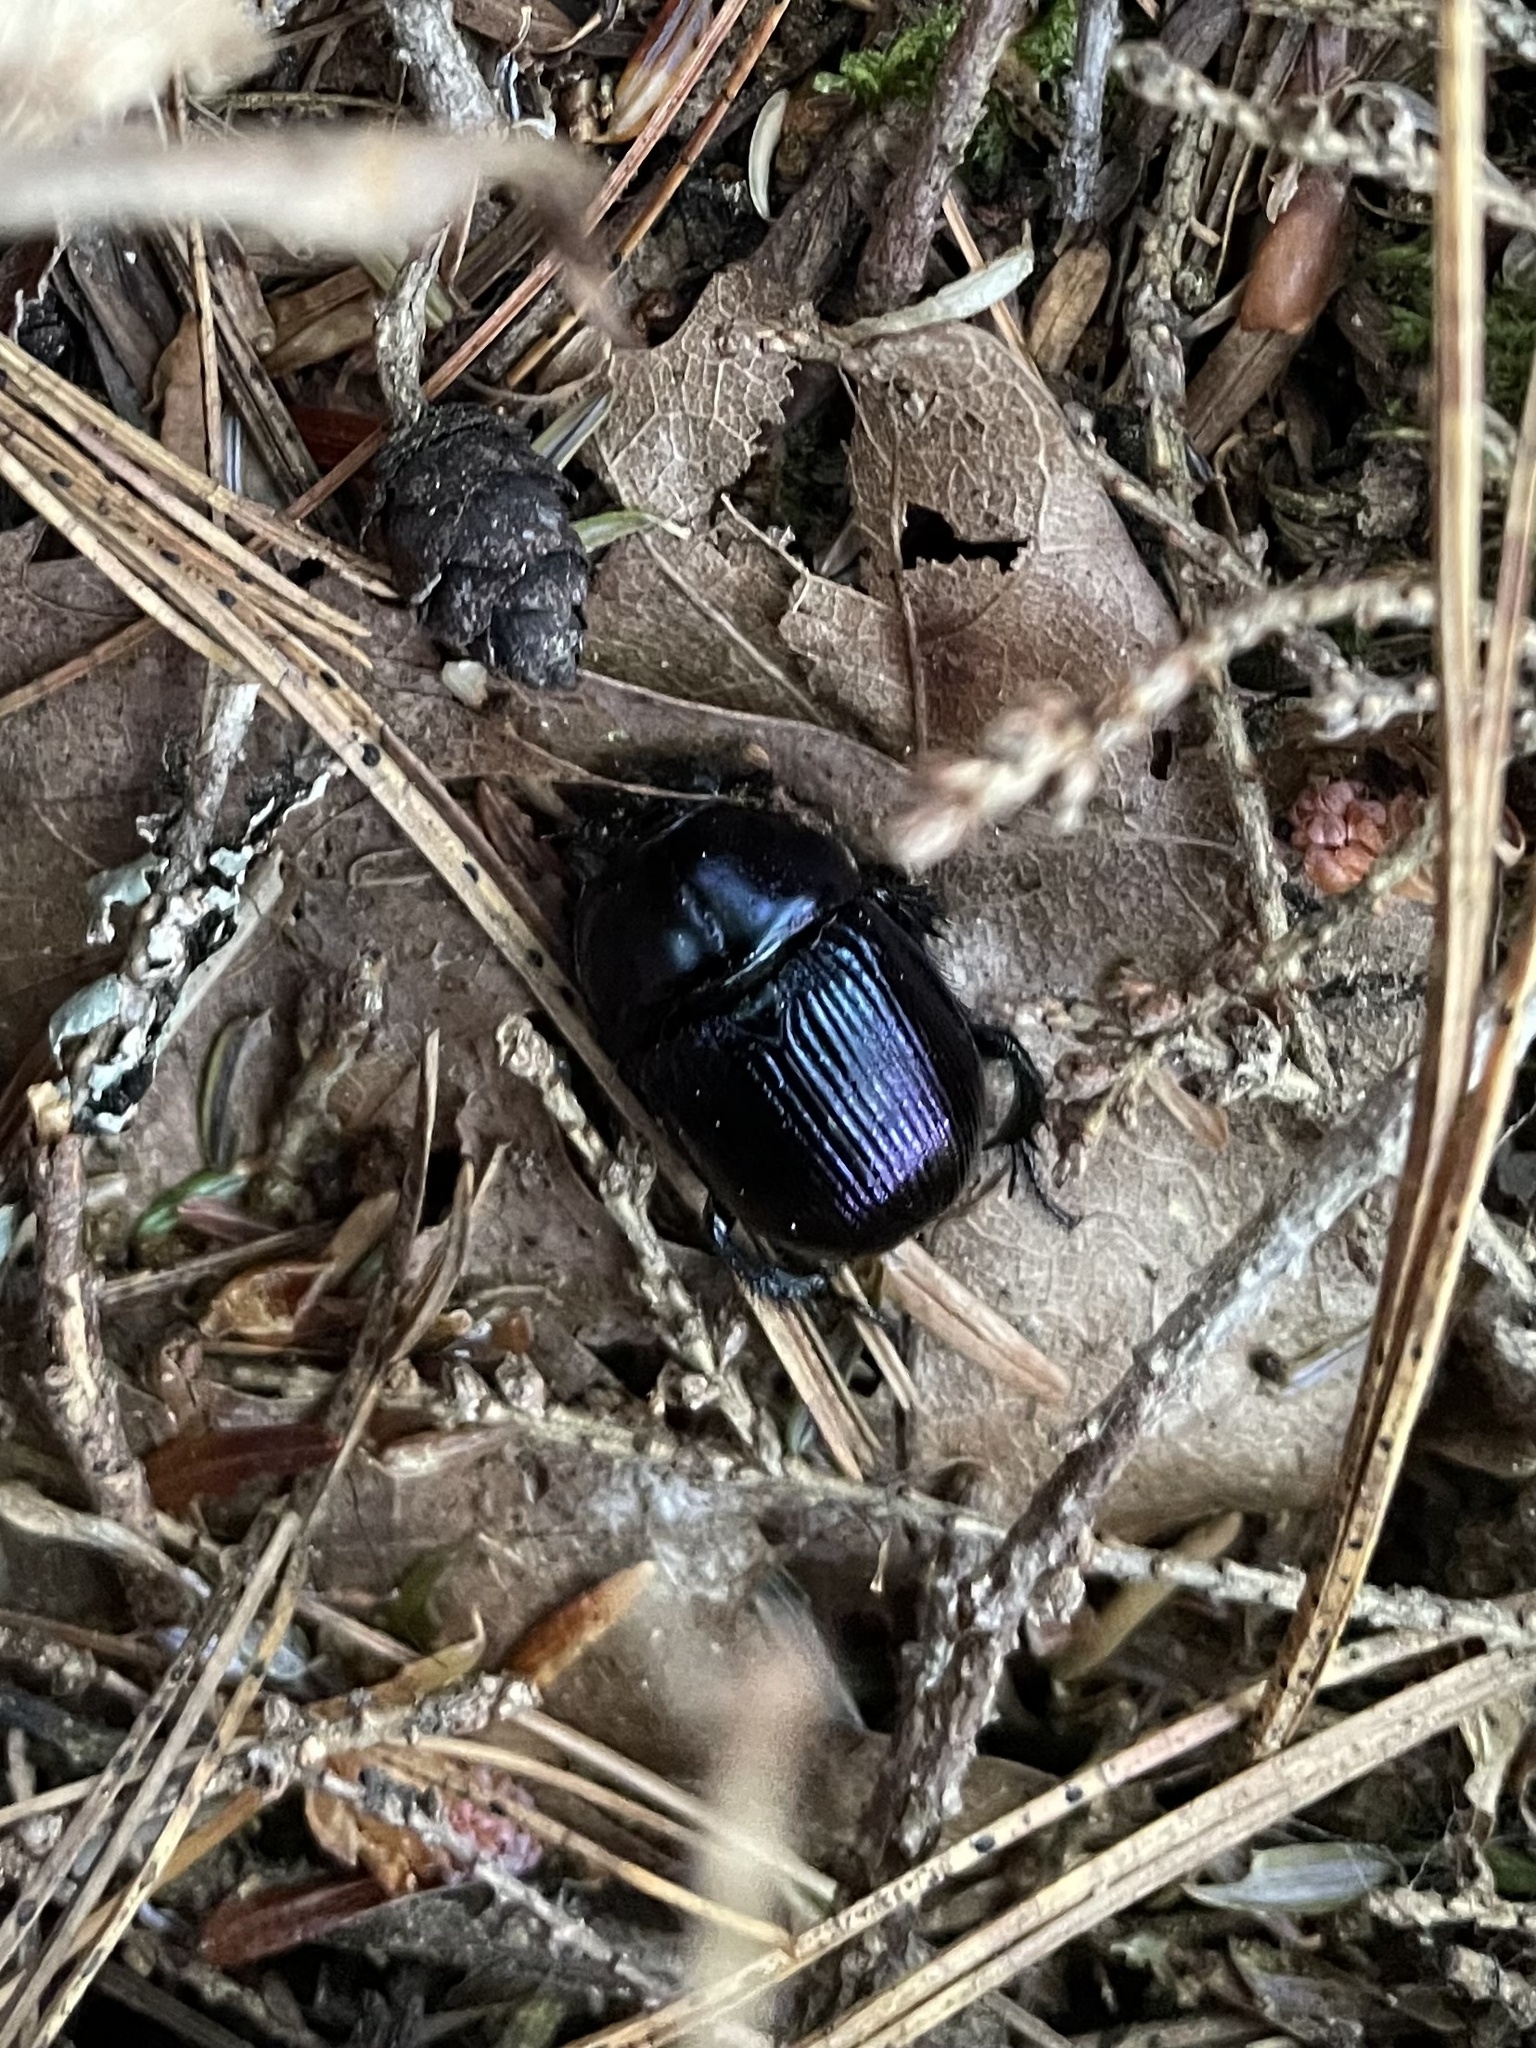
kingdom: Animalia
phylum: Arthropoda
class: Insecta
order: Coleoptera
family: Geotrupidae
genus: Anoplotrupes
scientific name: Anoplotrupes balyi
